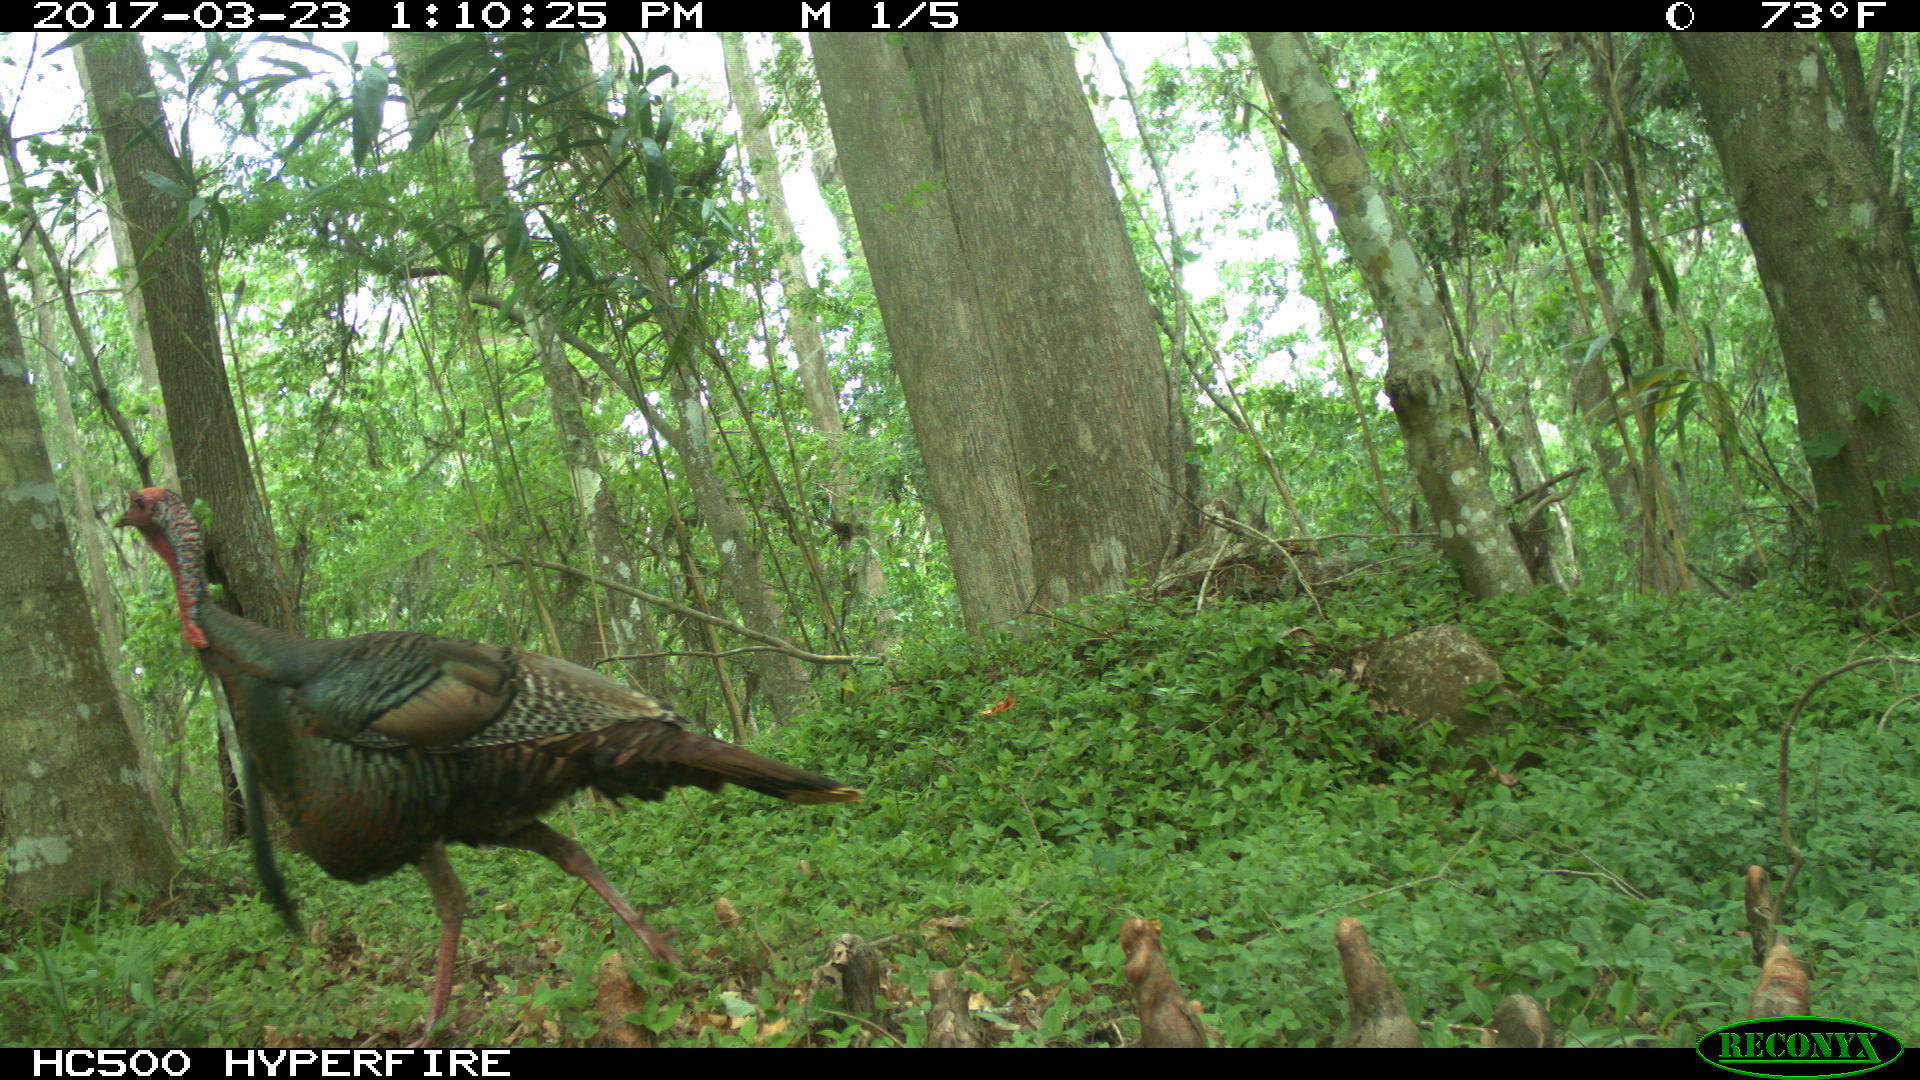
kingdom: Animalia
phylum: Chordata
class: Aves
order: Galliformes
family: Phasianidae
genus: Meleagris
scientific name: Meleagris gallopavo
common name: Wild turkey
